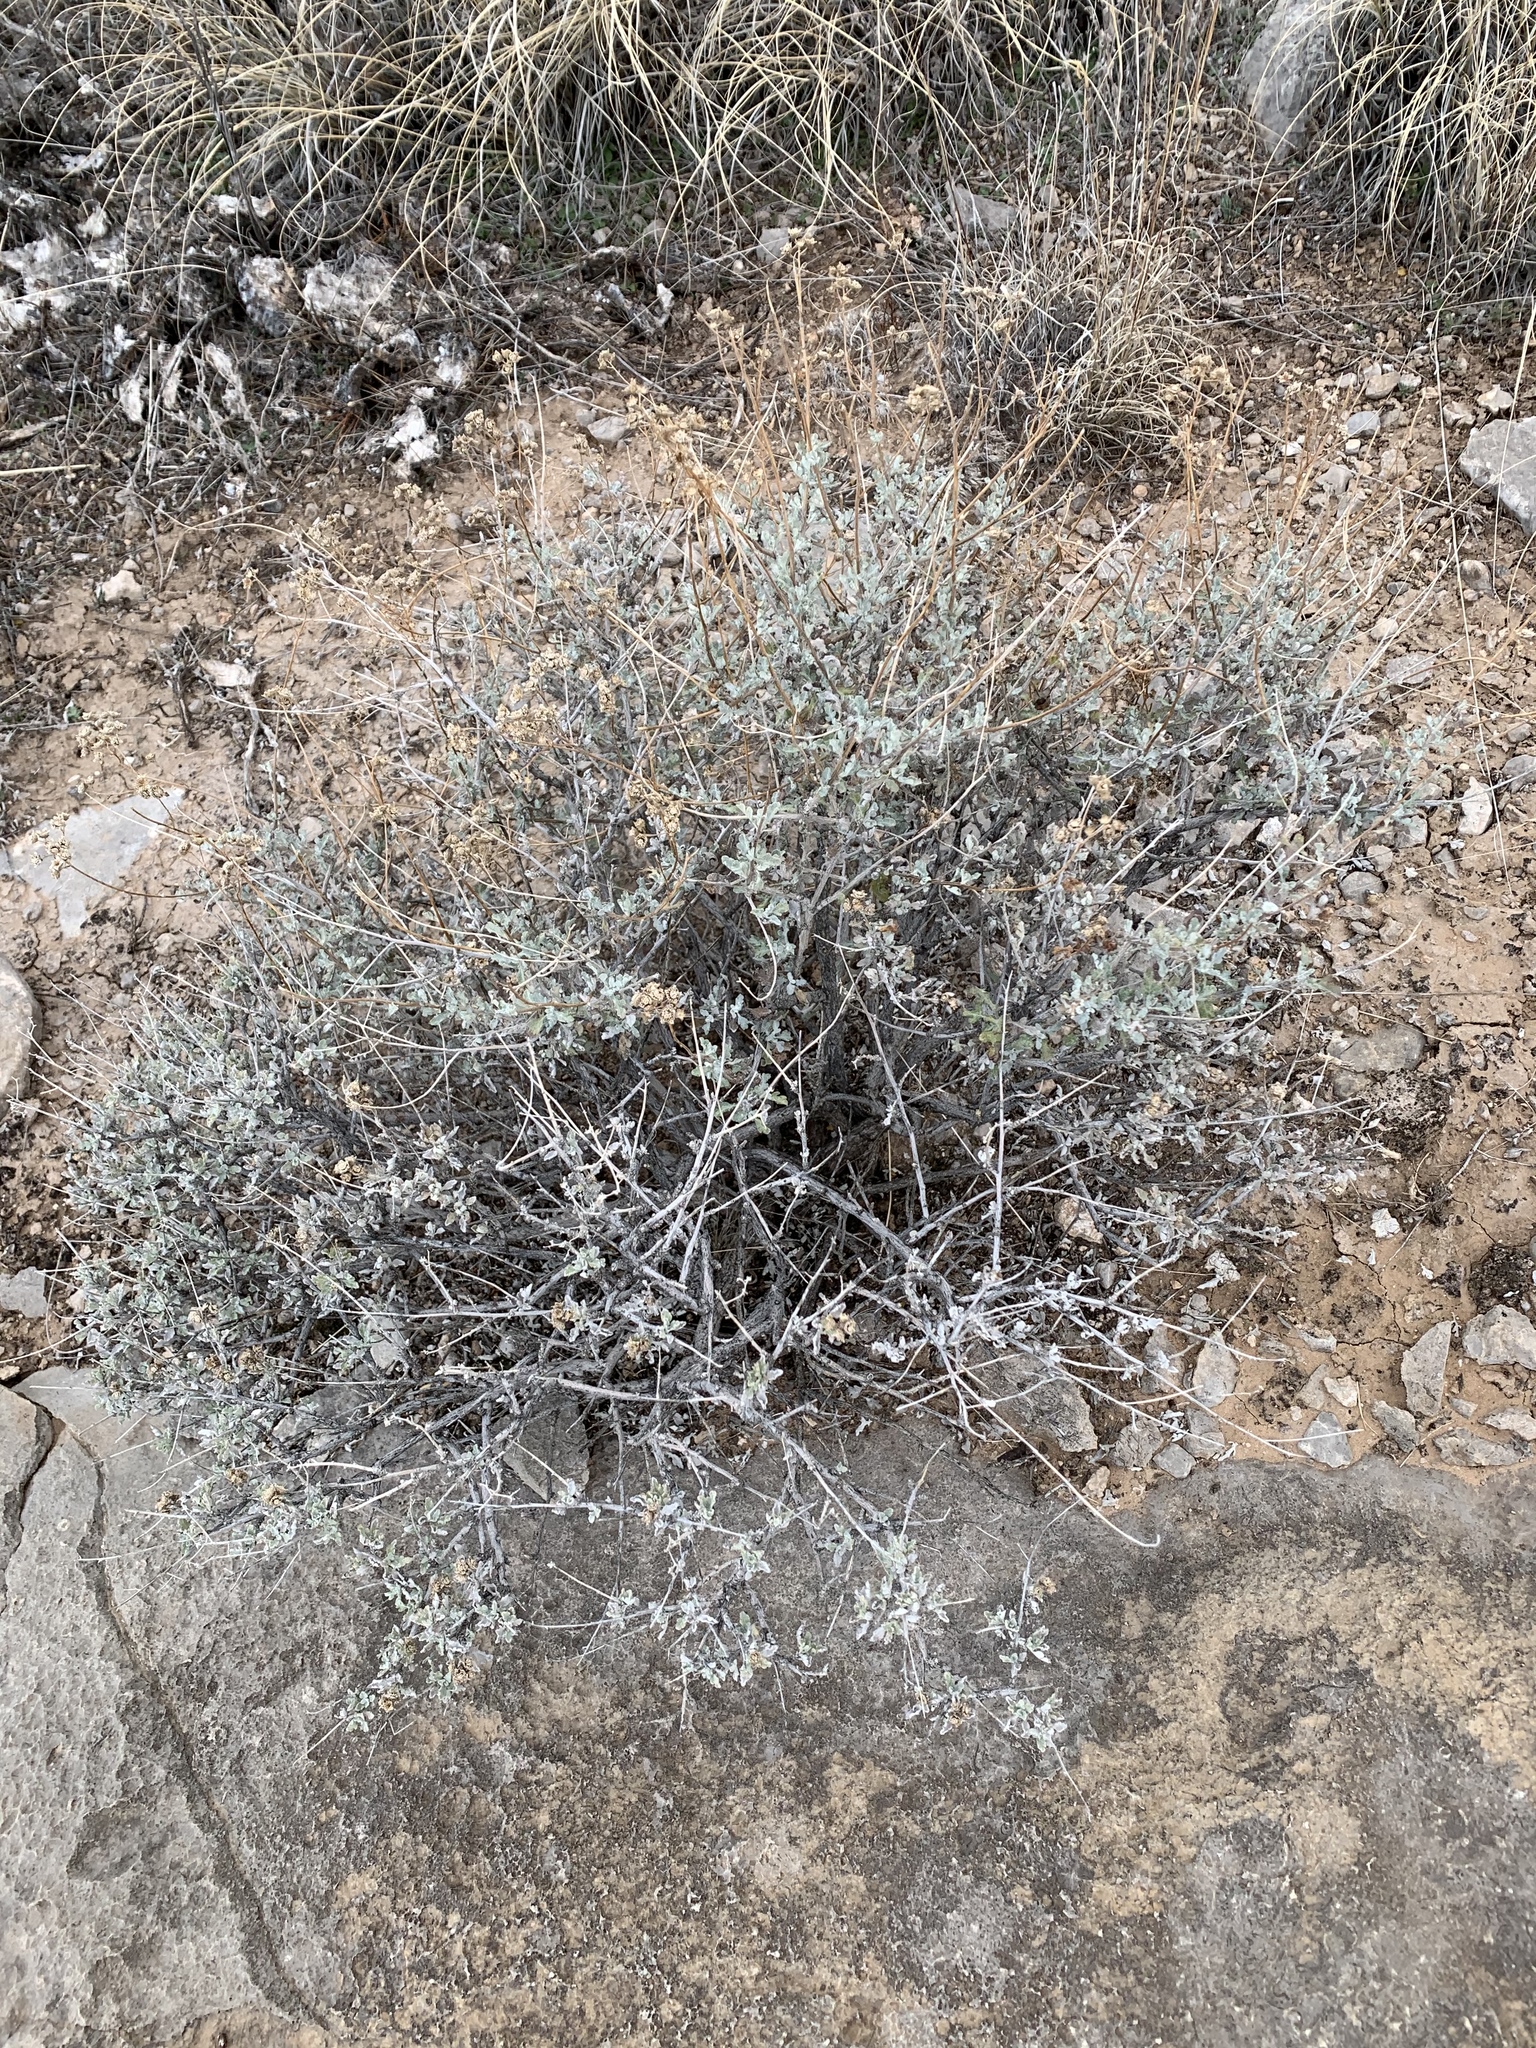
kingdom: Plantae
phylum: Tracheophyta
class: Magnoliopsida
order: Asterales
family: Asteraceae
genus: Parthenium
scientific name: Parthenium incanum
